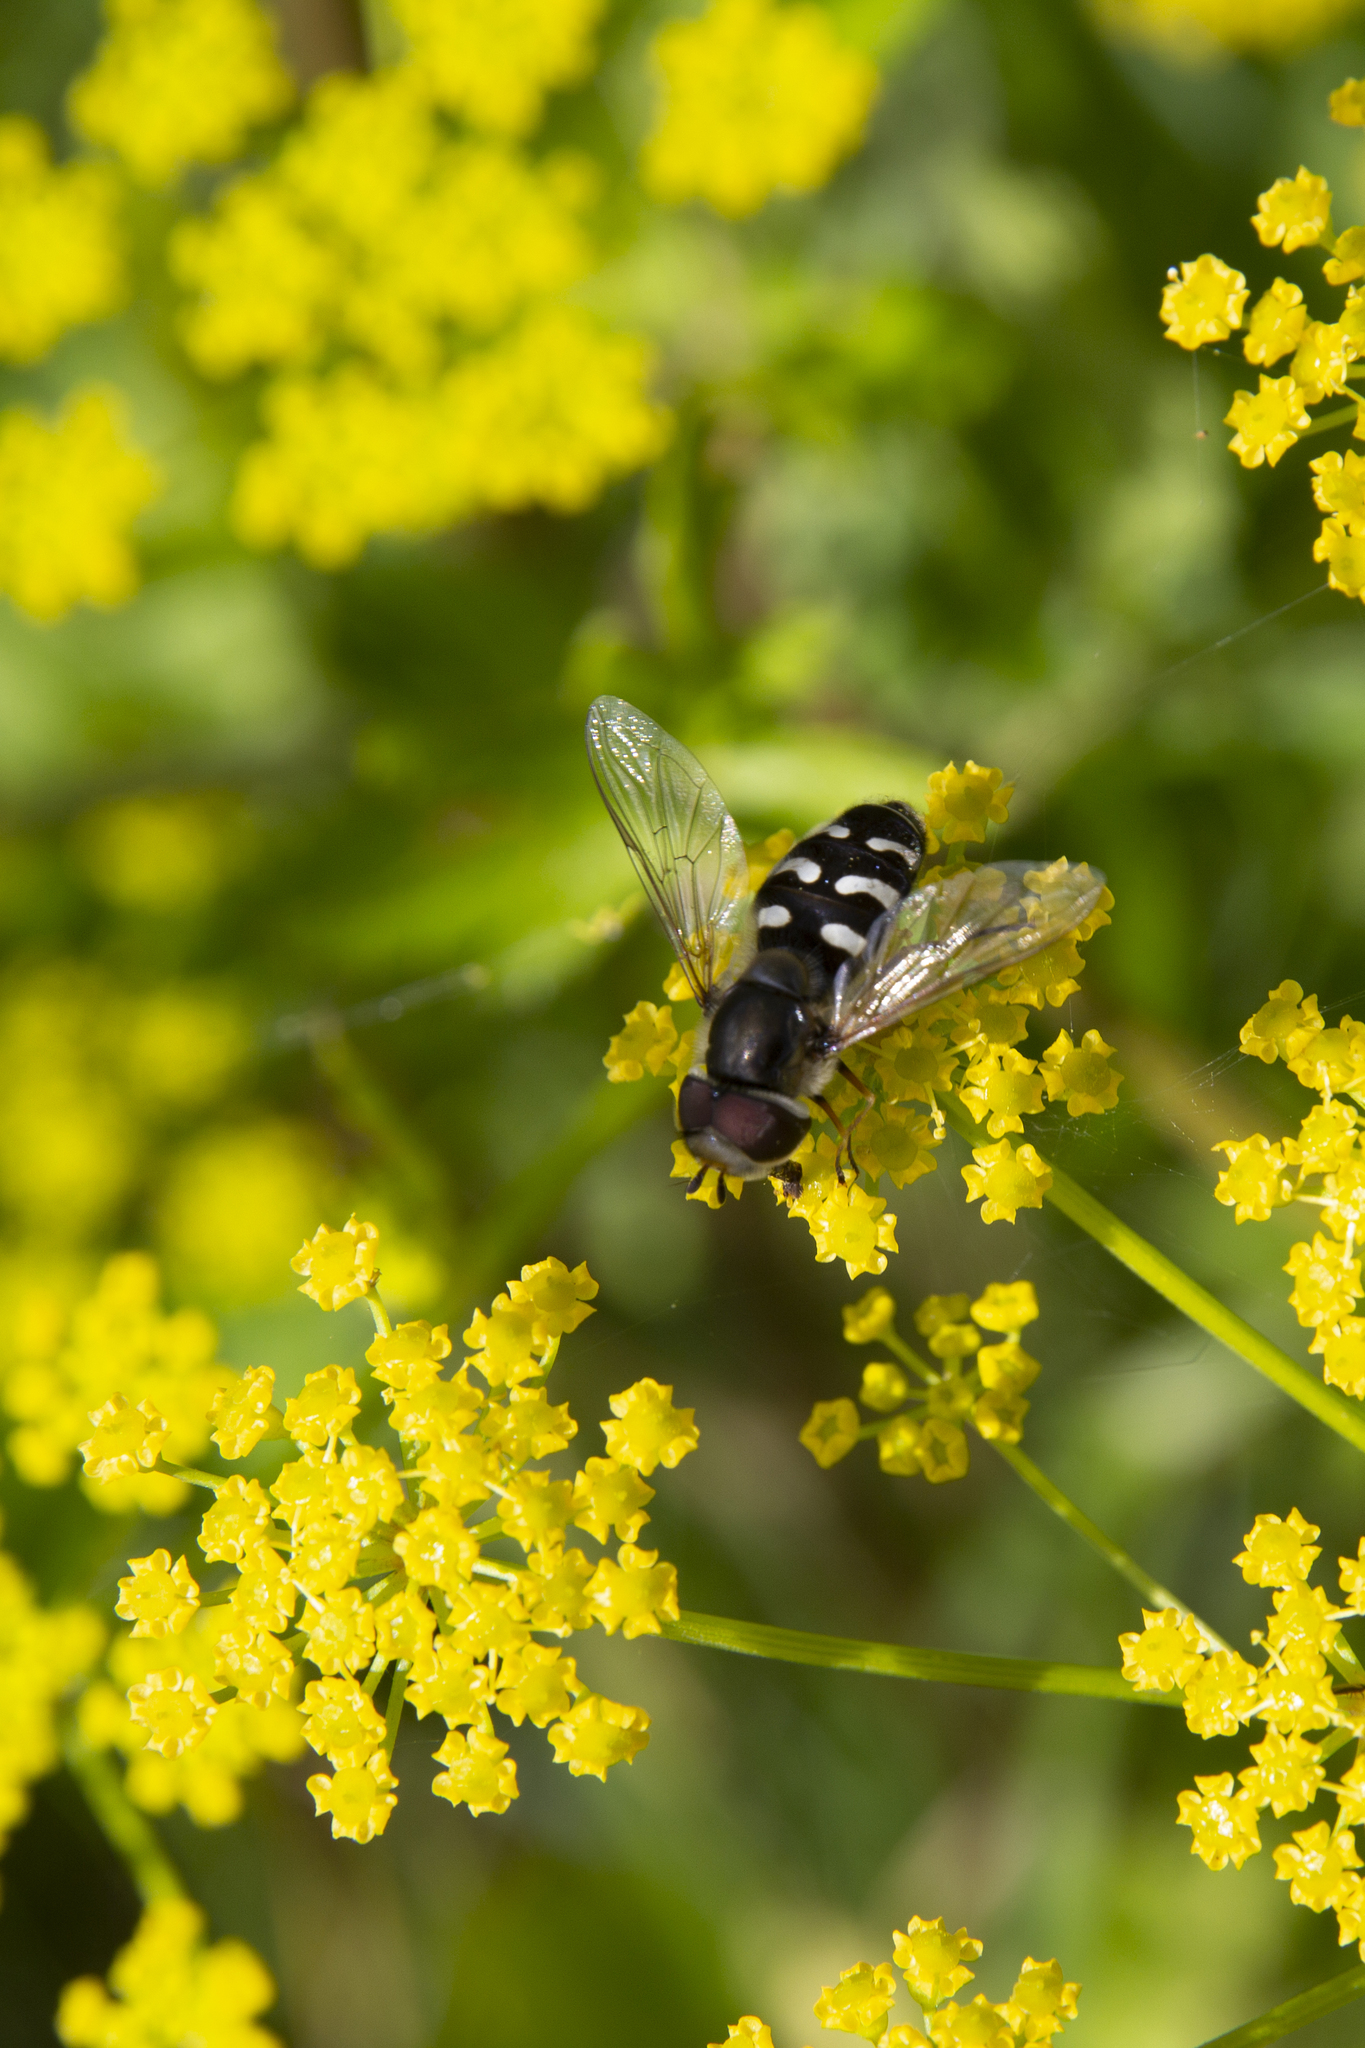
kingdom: Animalia
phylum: Arthropoda
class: Insecta
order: Diptera
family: Syrphidae
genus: Scaeva
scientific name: Scaeva pyrastri
